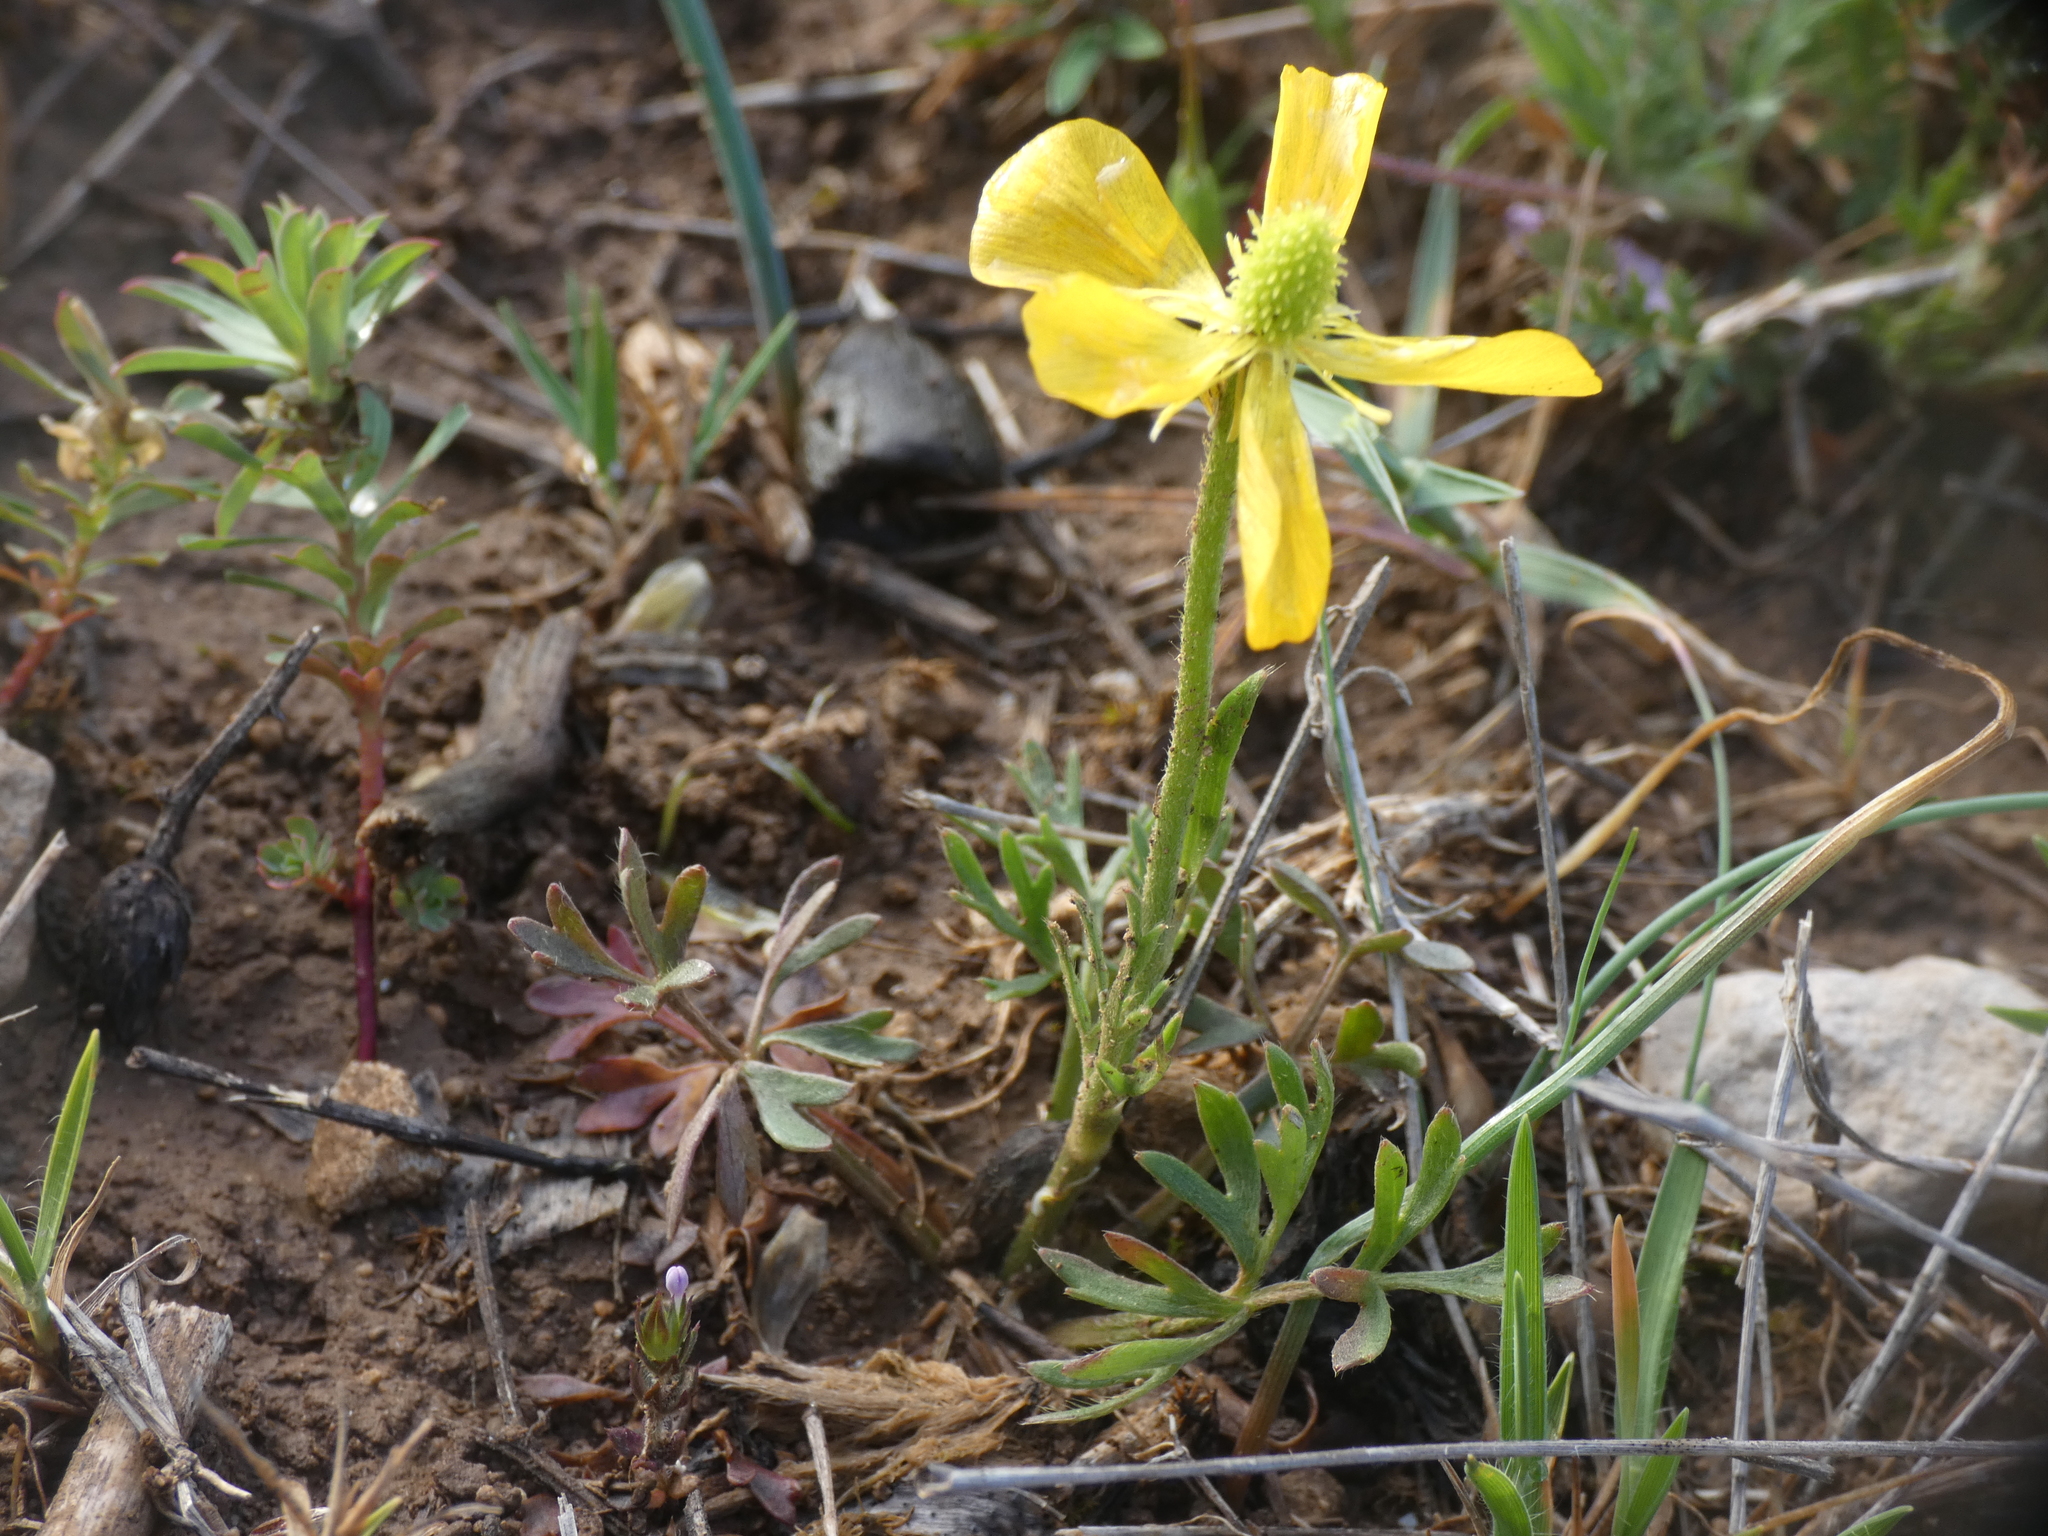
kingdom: Plantae
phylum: Tracheophyta
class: Magnoliopsida
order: Ranunculales
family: Ranunculaceae
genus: Ranunculus
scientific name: Ranunculus paludosus
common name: Jersey buttercup
